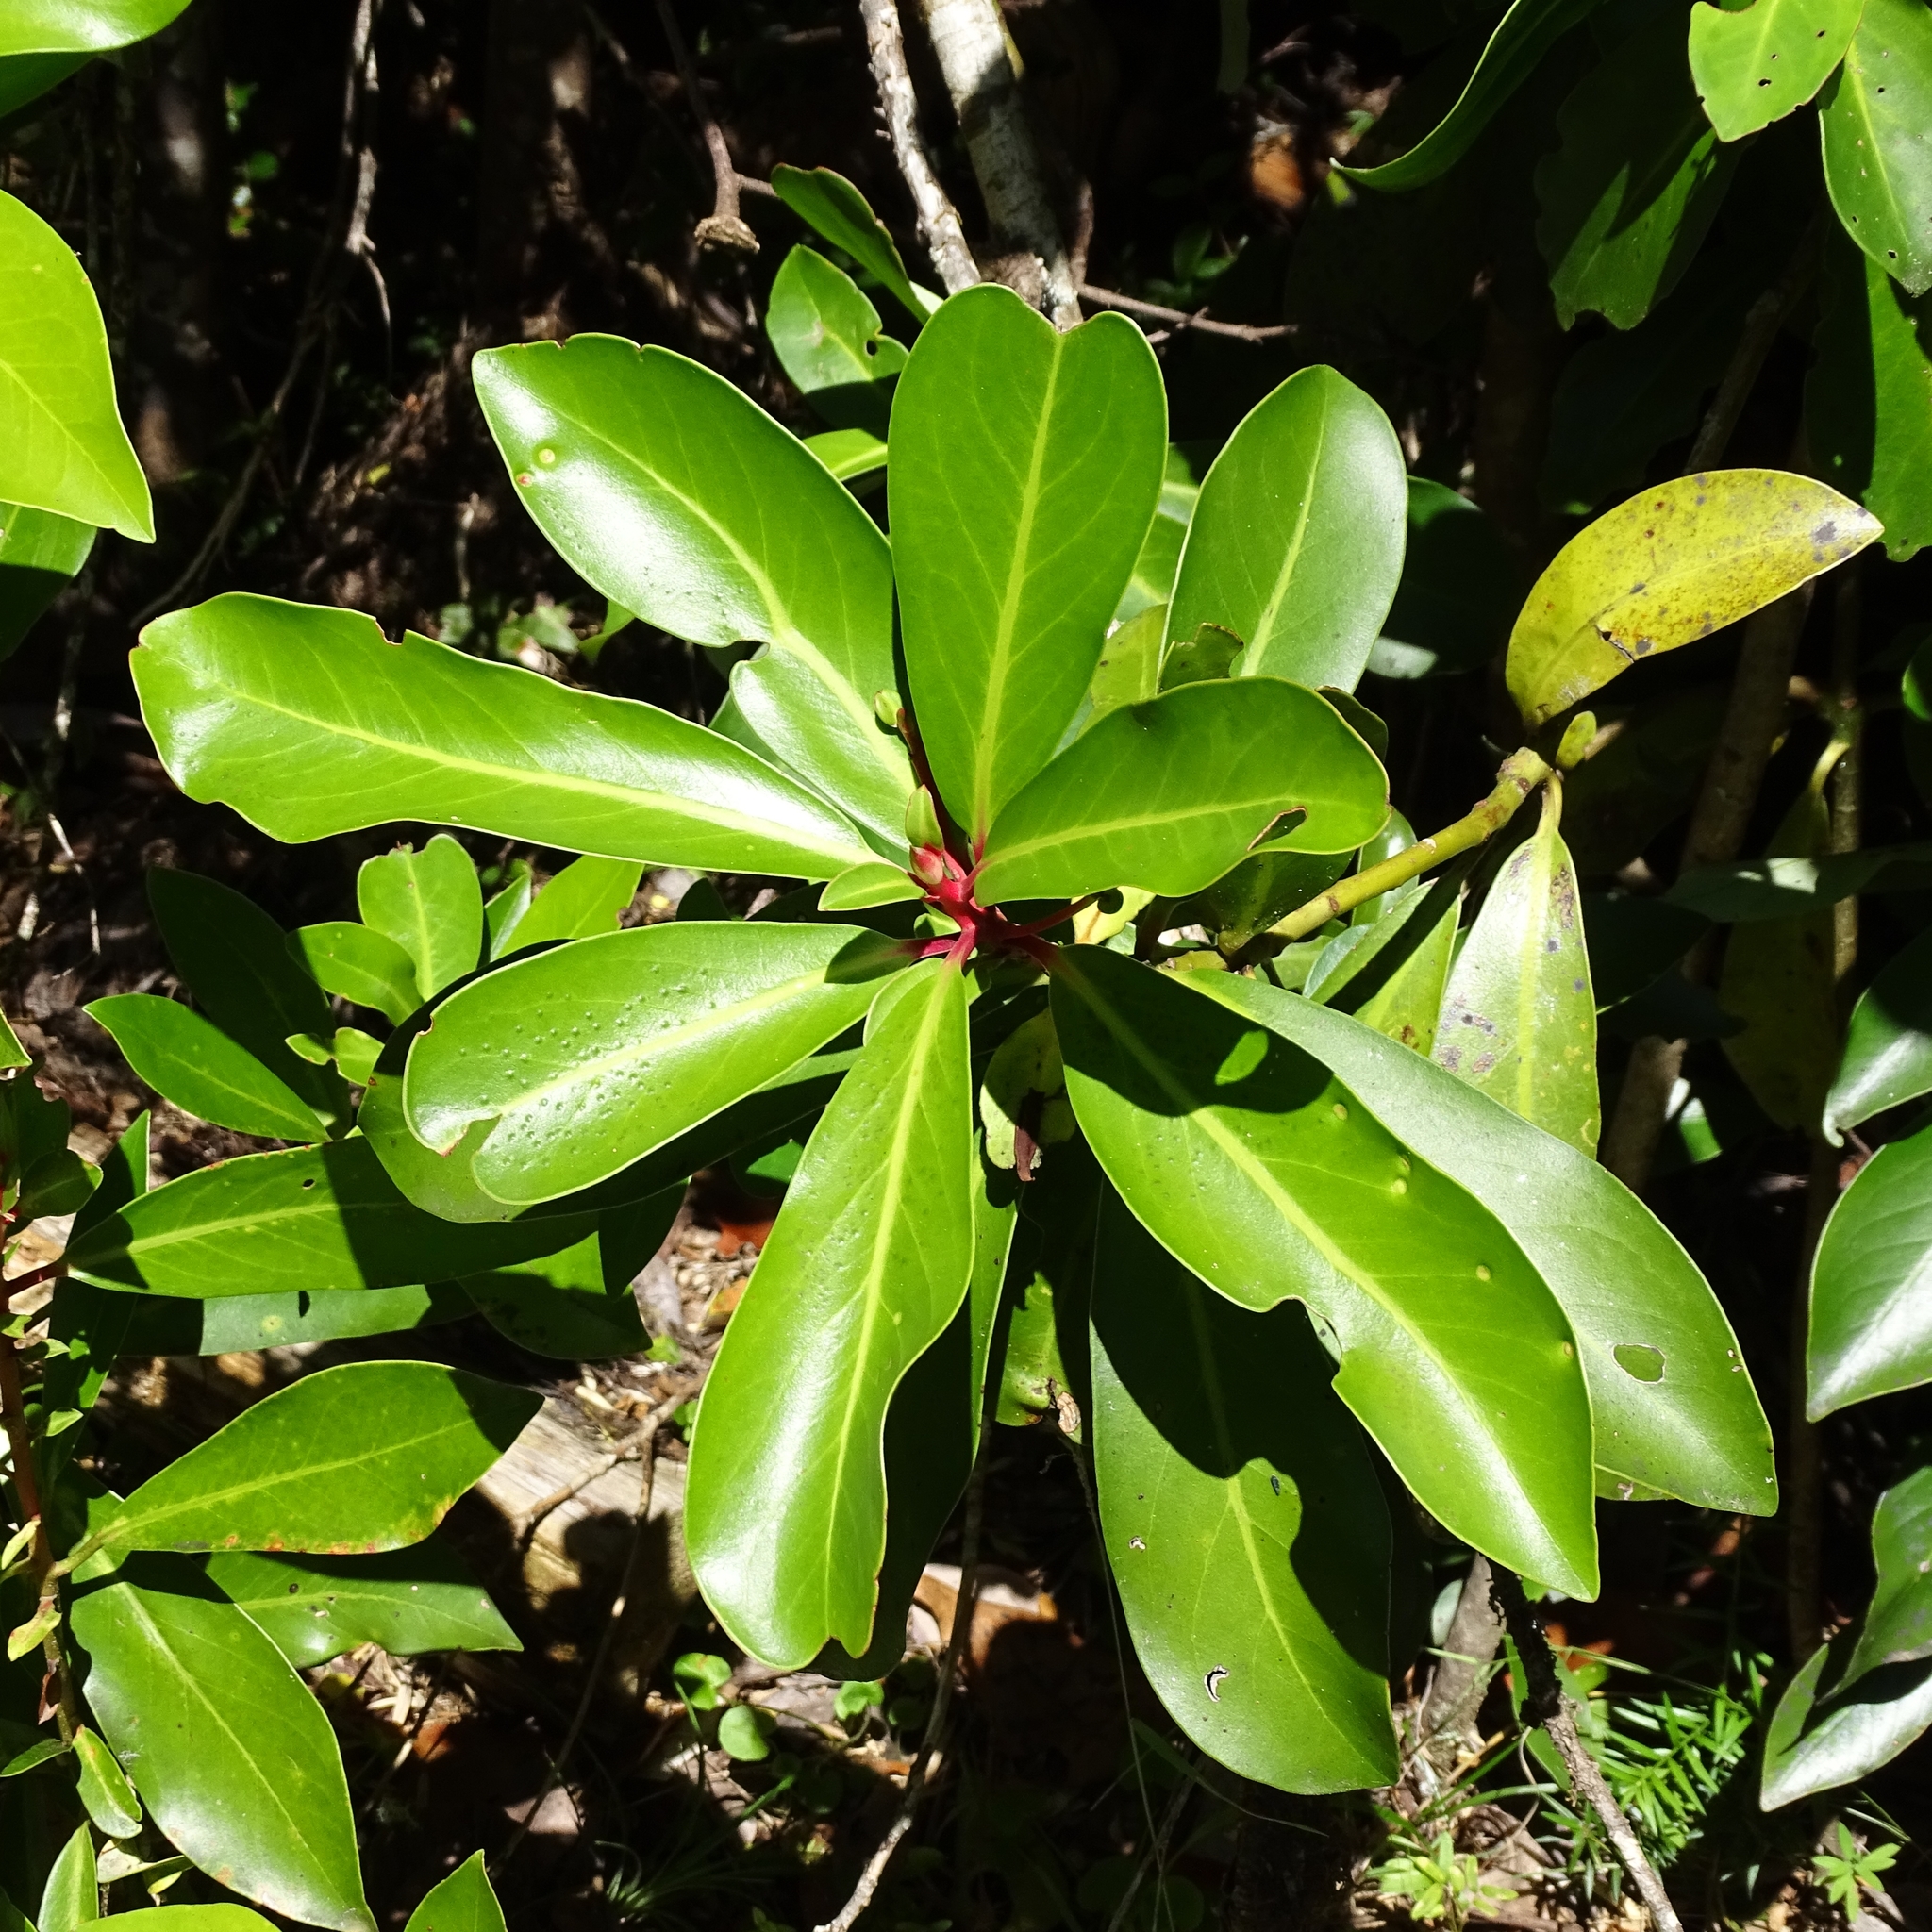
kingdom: Plantae
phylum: Tracheophyta
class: Magnoliopsida
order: Canellales
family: Winteraceae
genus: Drimys
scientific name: Drimys winteri
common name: Winter's-bark
